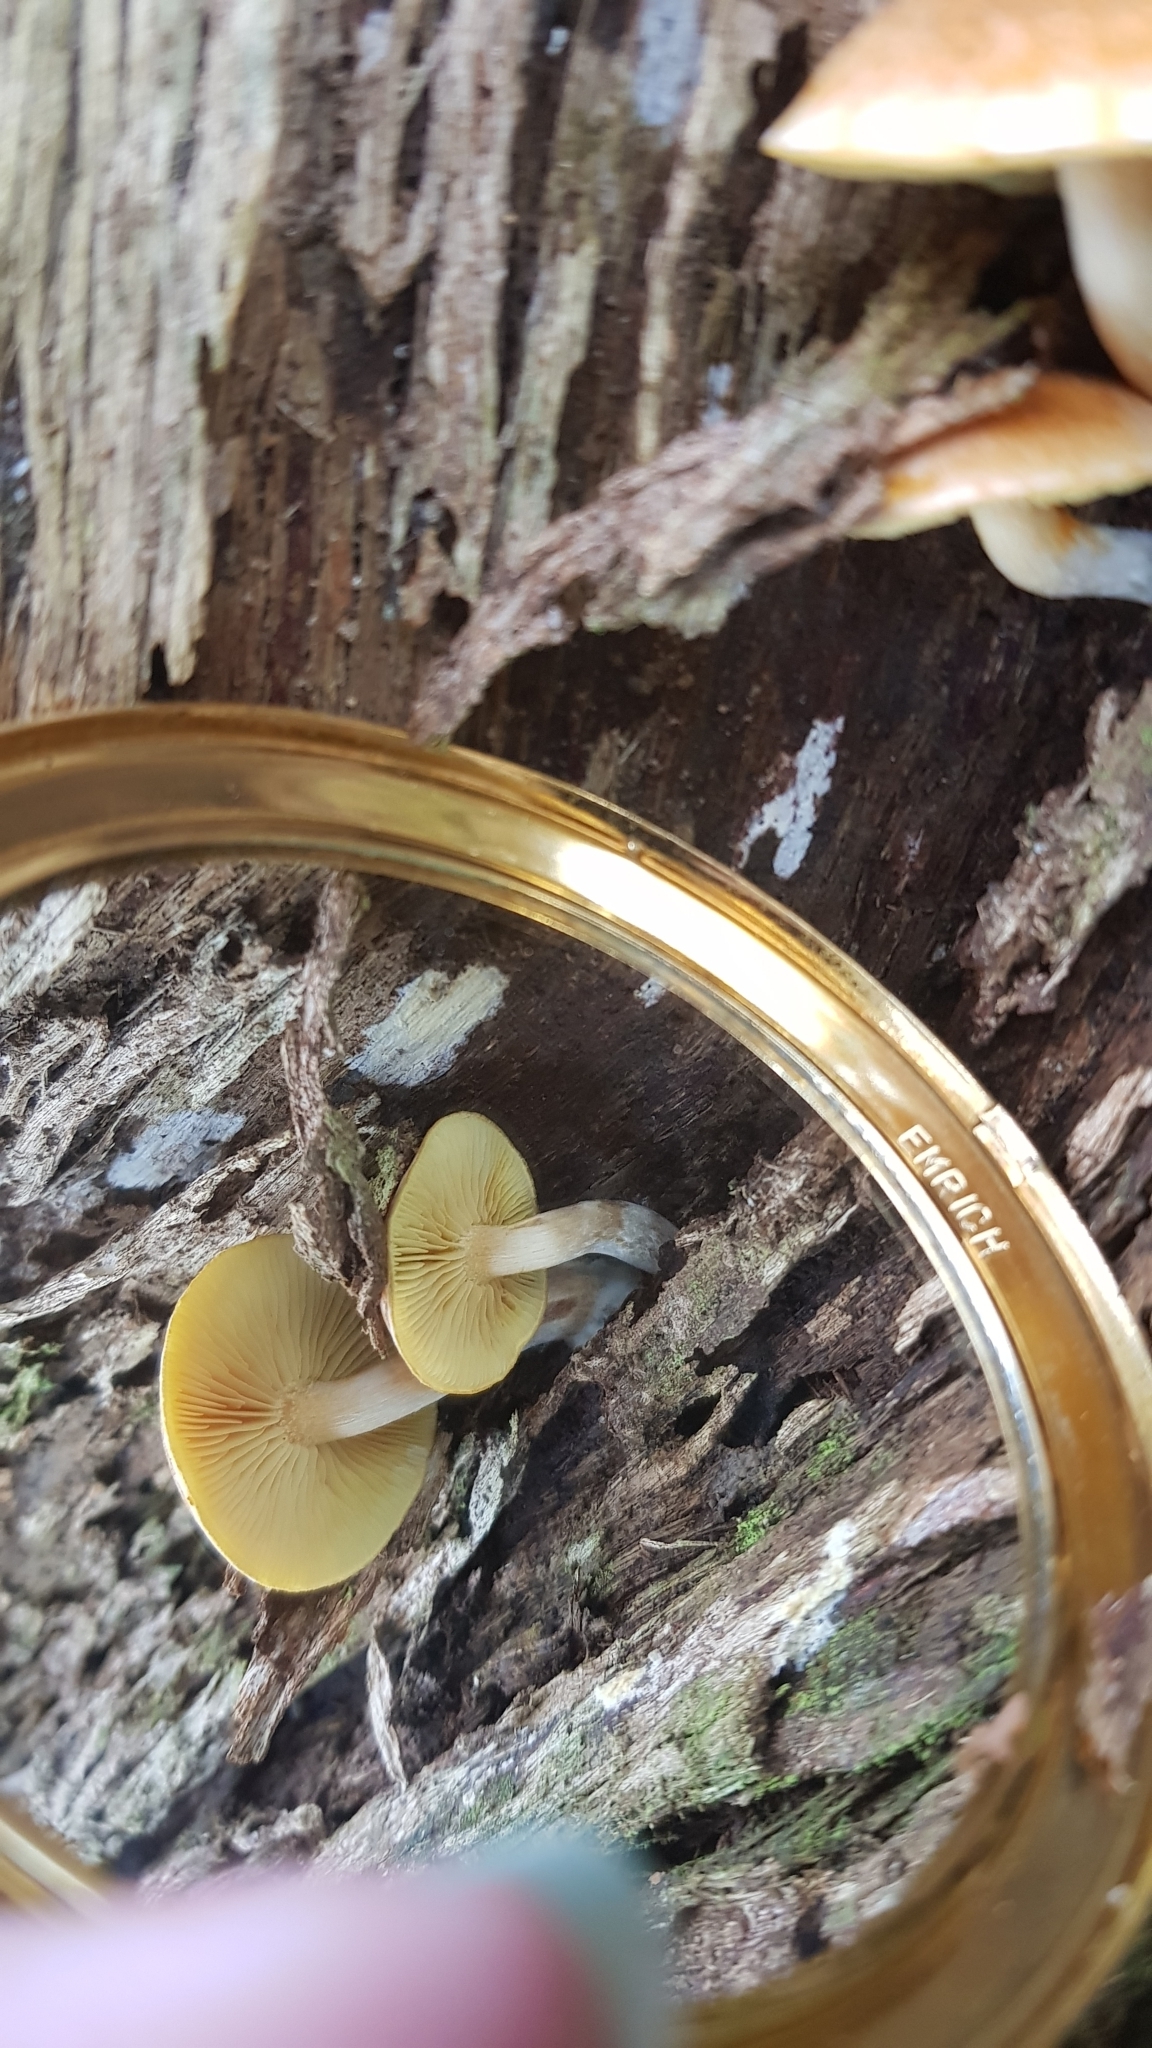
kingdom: Fungi
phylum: Basidiomycota
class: Agaricomycetes
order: Agaricales
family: Hymenogastraceae
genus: Gymnopilus
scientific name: Gymnopilus allantopus
